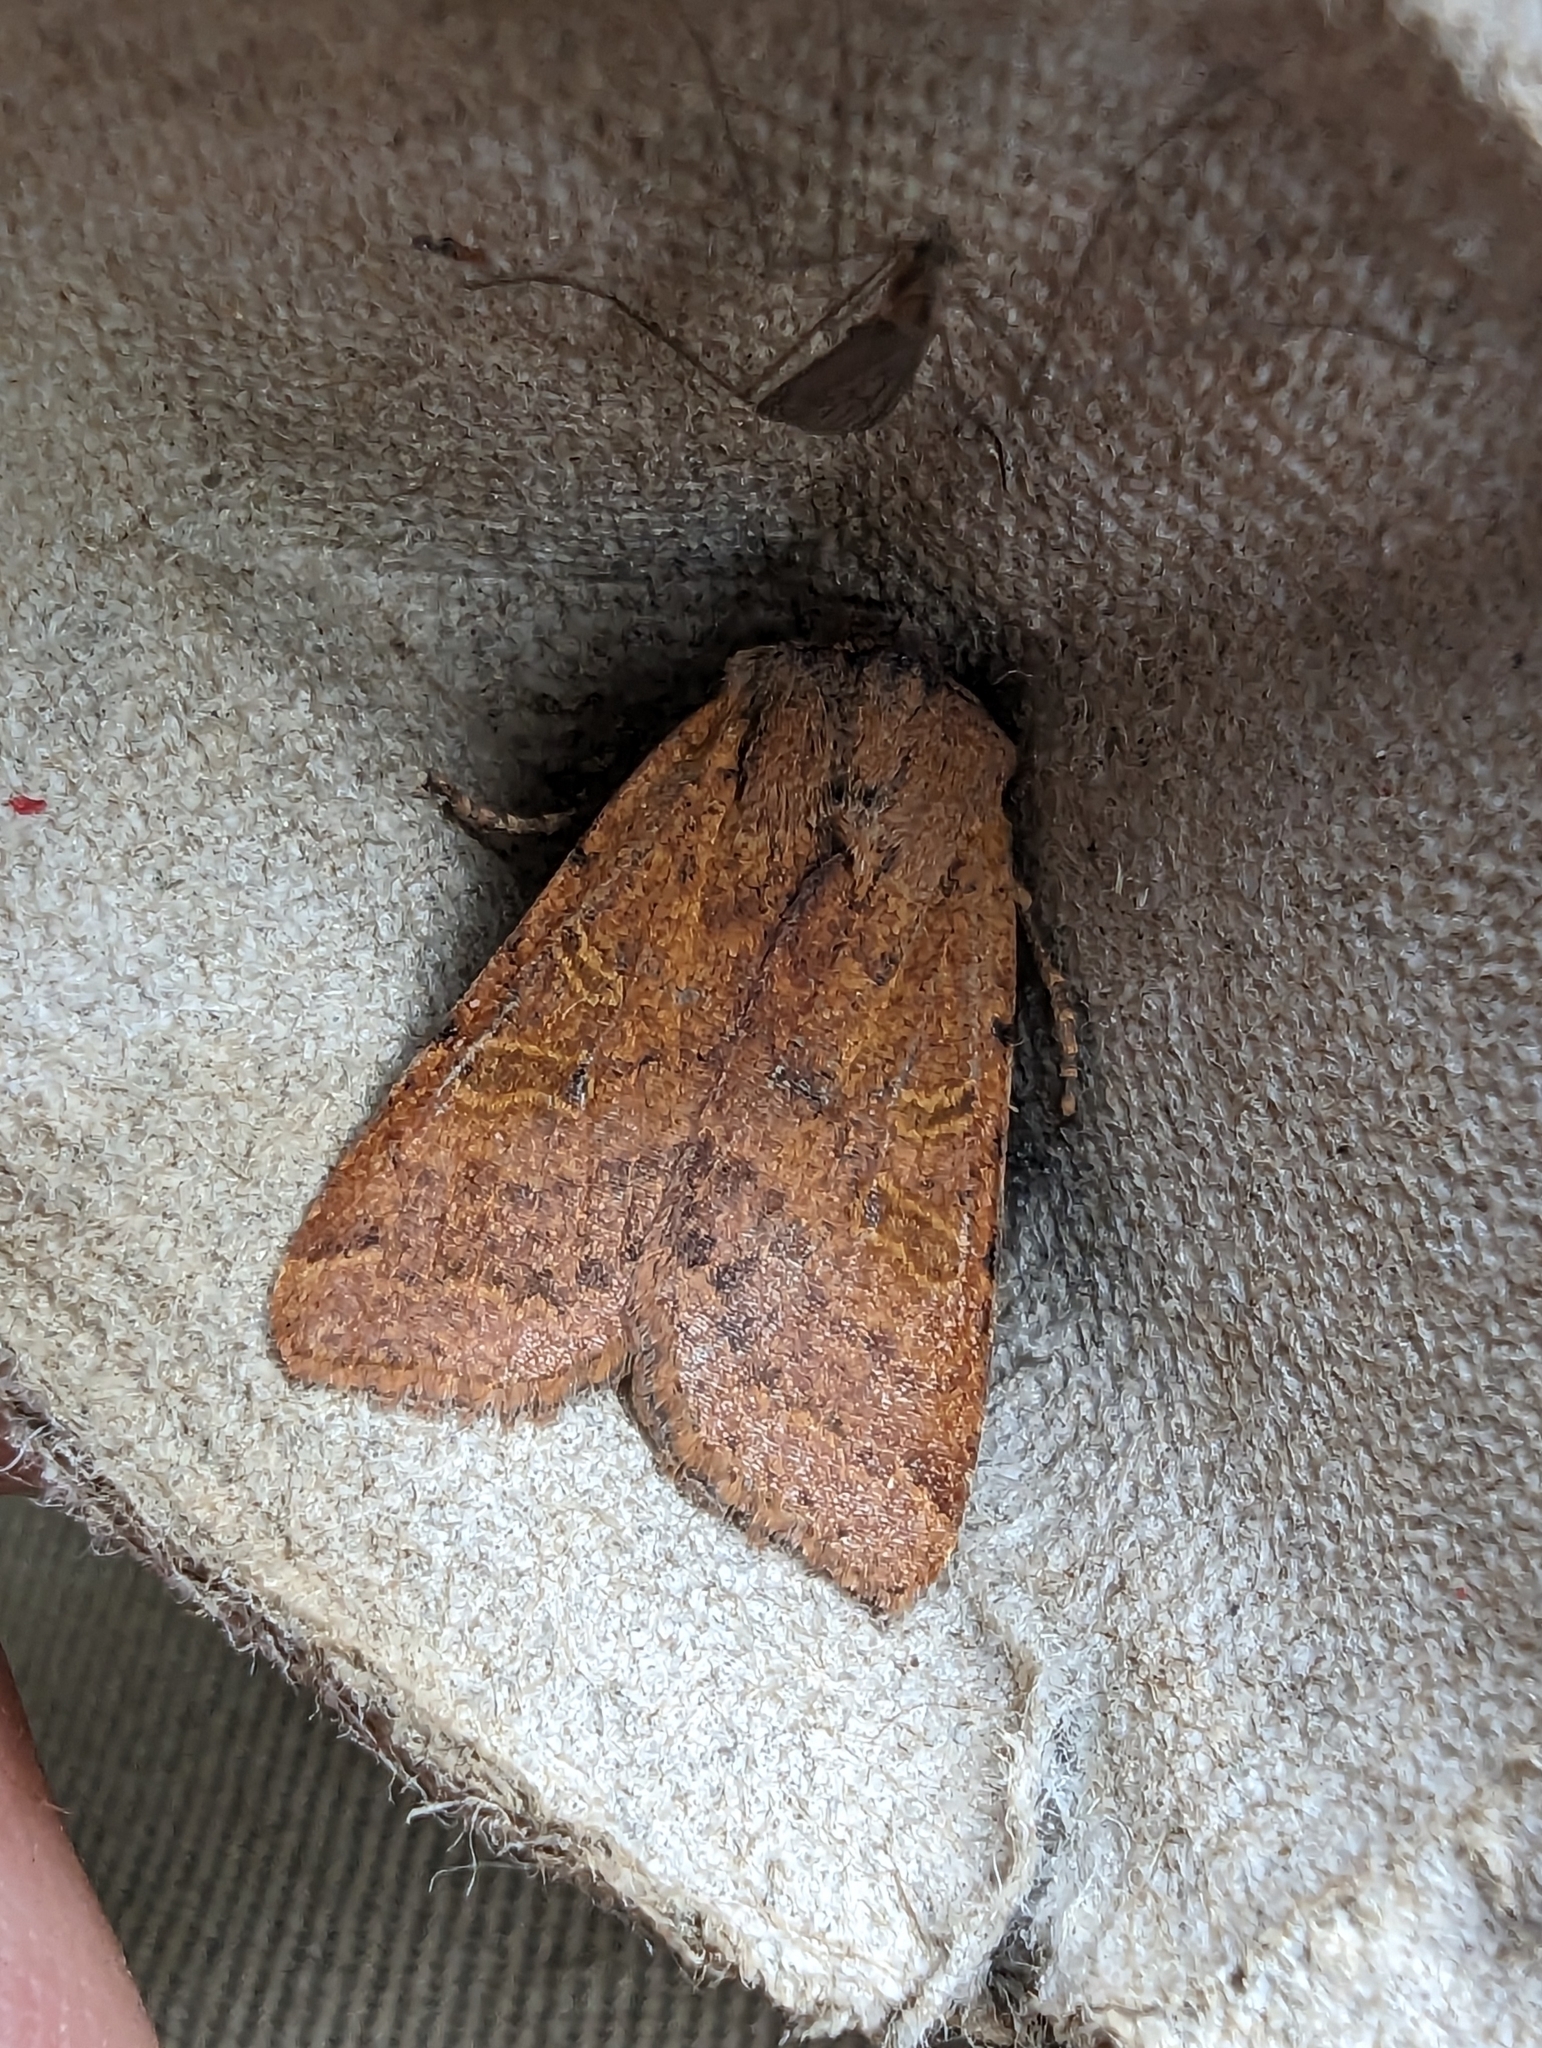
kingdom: Animalia
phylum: Arthropoda
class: Insecta
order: Lepidoptera
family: Noctuidae
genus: Agrochola
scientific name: Agrochola lychnidis
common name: Beaded chestnut
